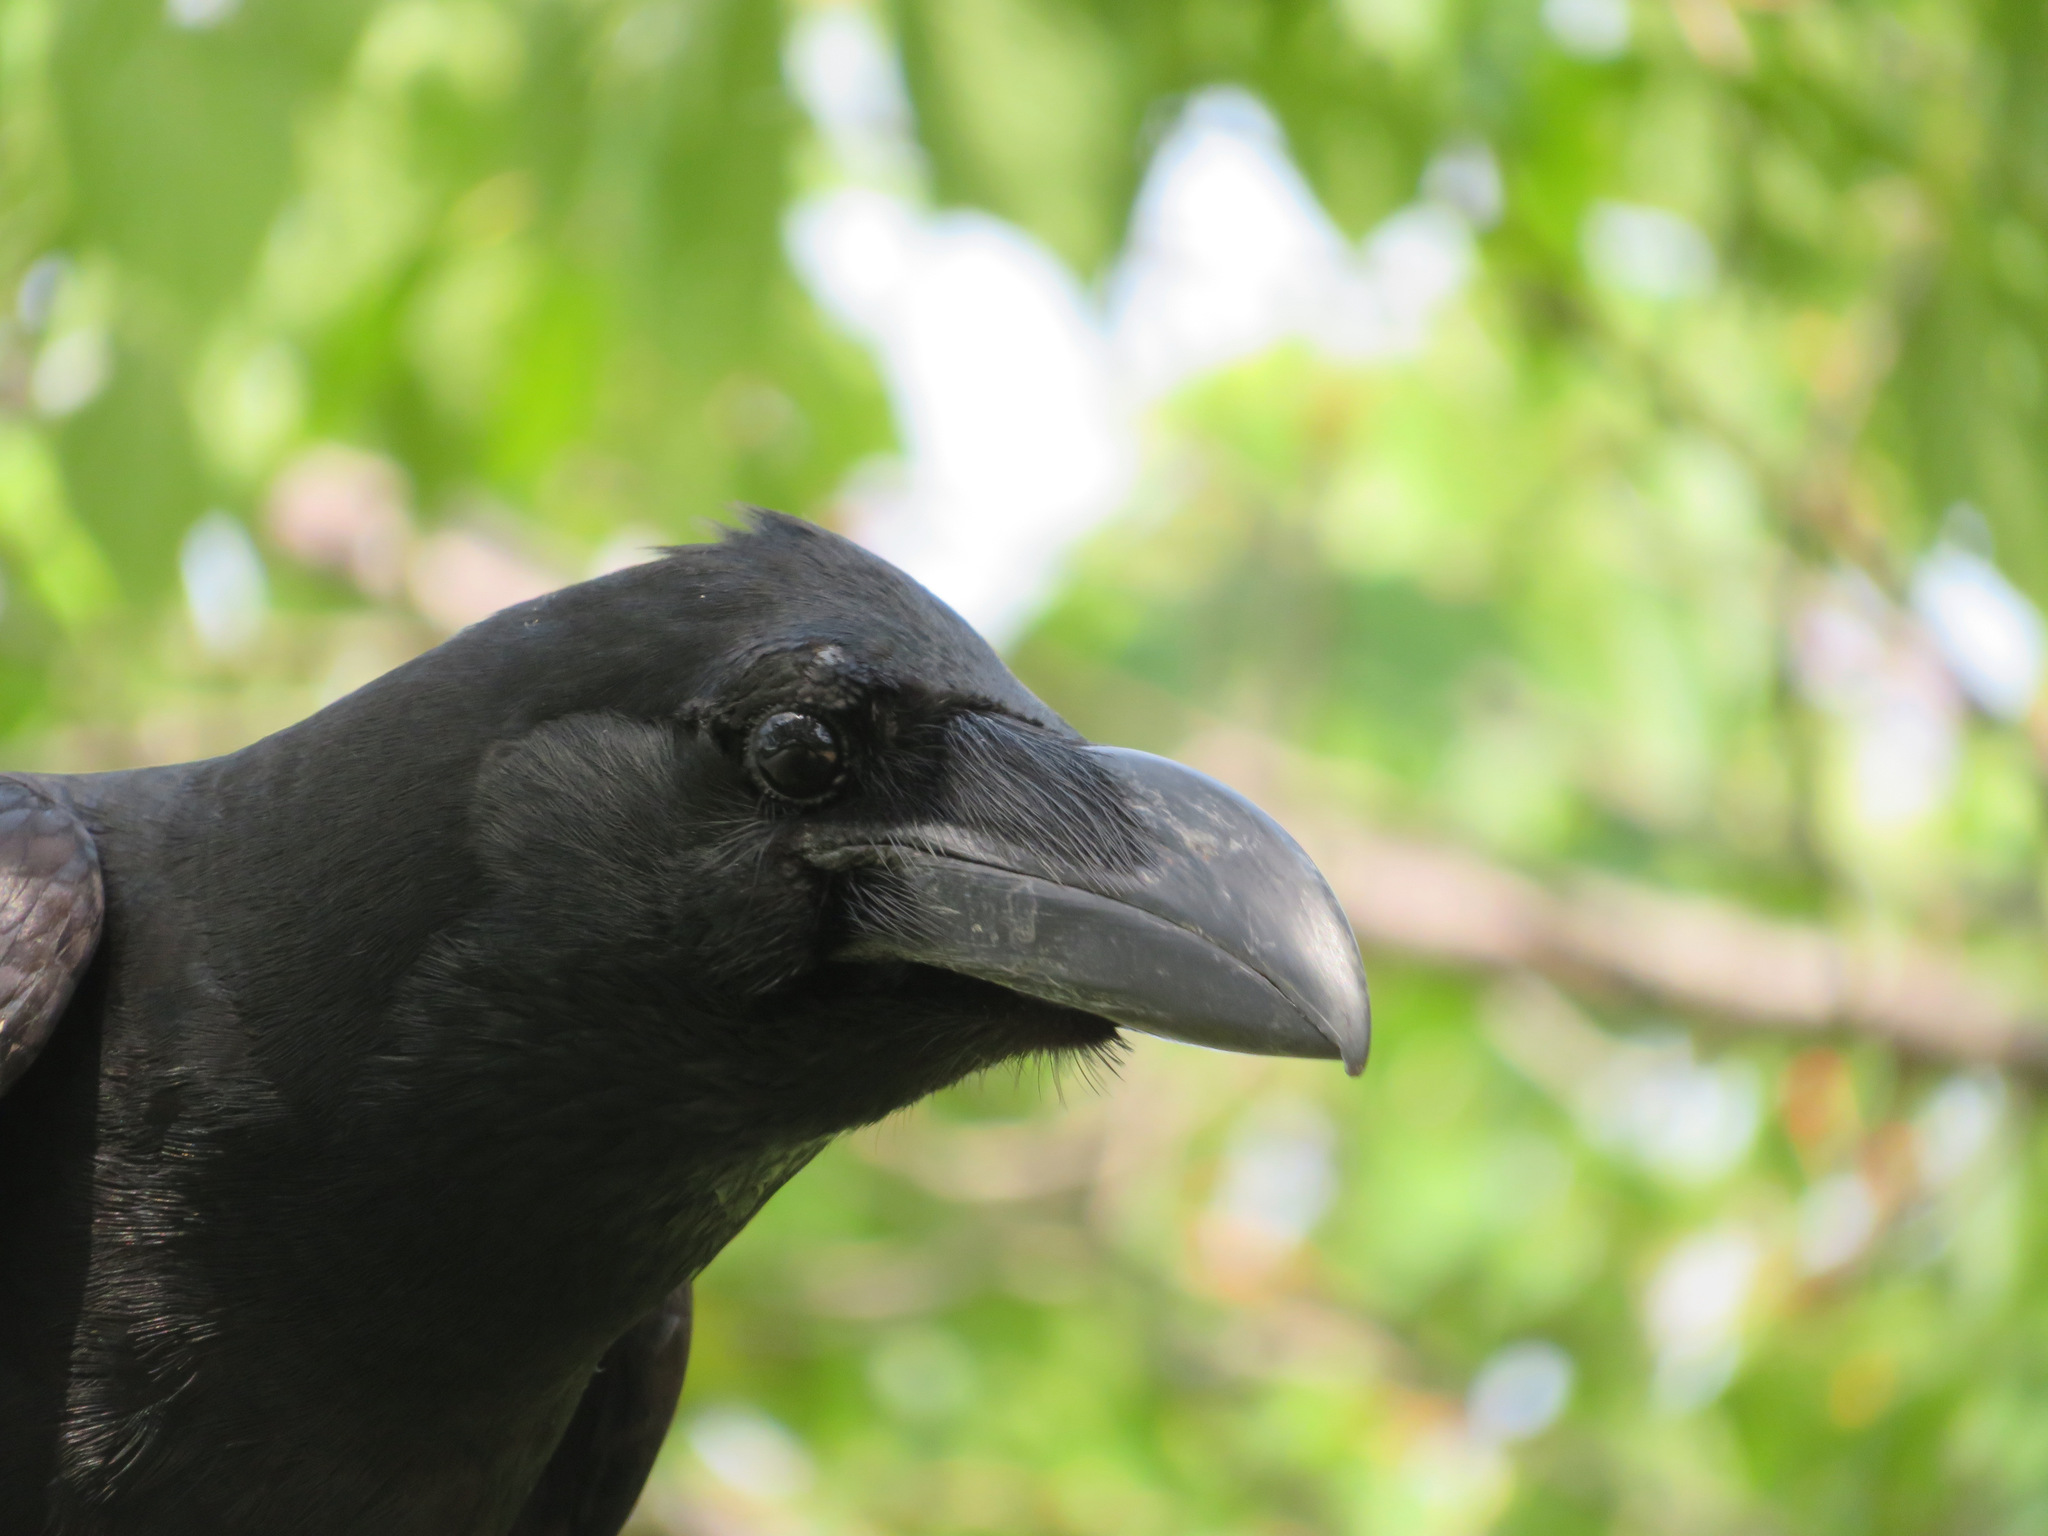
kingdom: Animalia
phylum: Chordata
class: Aves
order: Passeriformes
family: Corvidae
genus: Corvus
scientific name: Corvus macrorhynchos
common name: Large-billed crow
